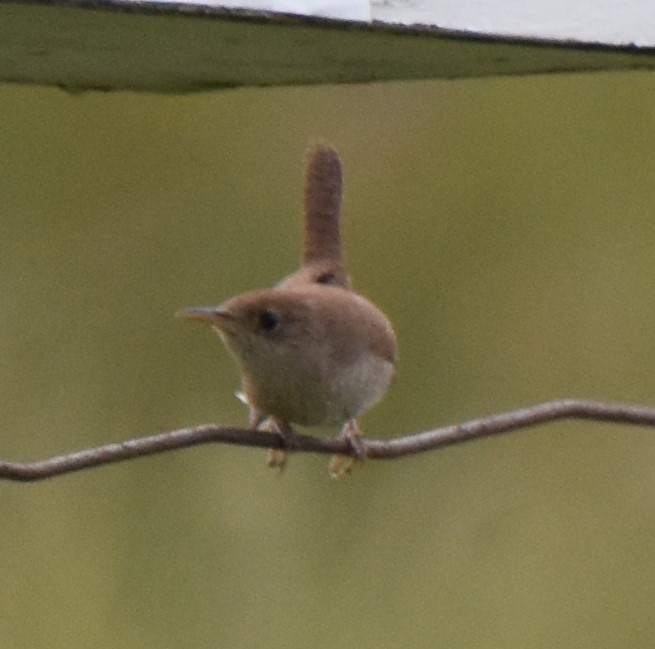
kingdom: Animalia
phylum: Chordata
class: Aves
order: Passeriformes
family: Troglodytidae
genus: Troglodytes
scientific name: Troglodytes aedon
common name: House wren
